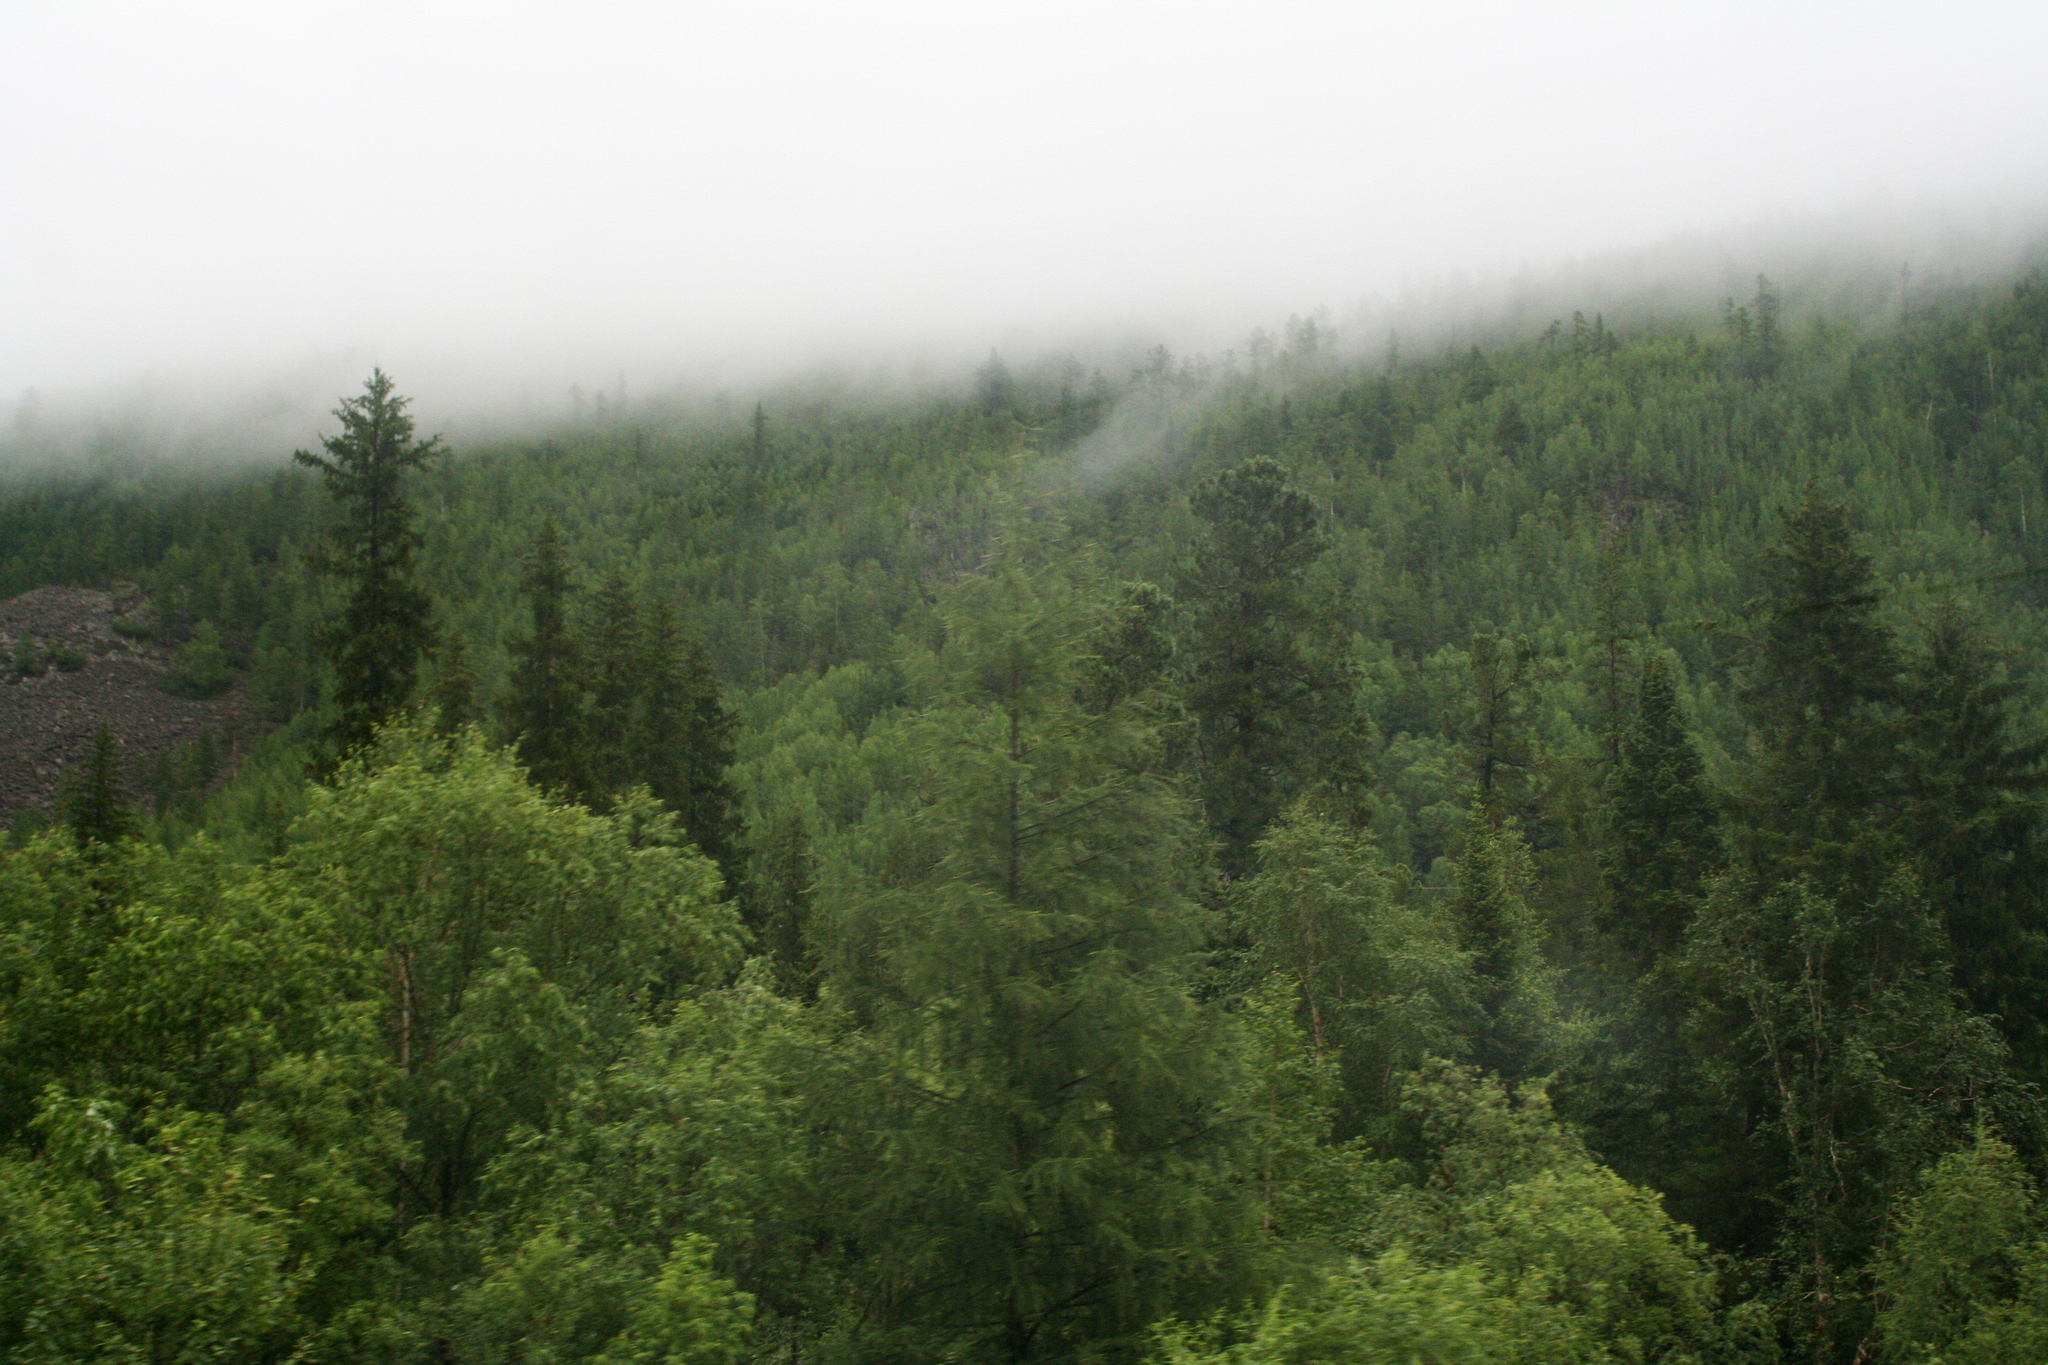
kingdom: Plantae
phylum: Tracheophyta
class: Pinopsida
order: Pinales
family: Pinaceae
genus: Pinus
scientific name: Pinus sibirica
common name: Siberian pine
